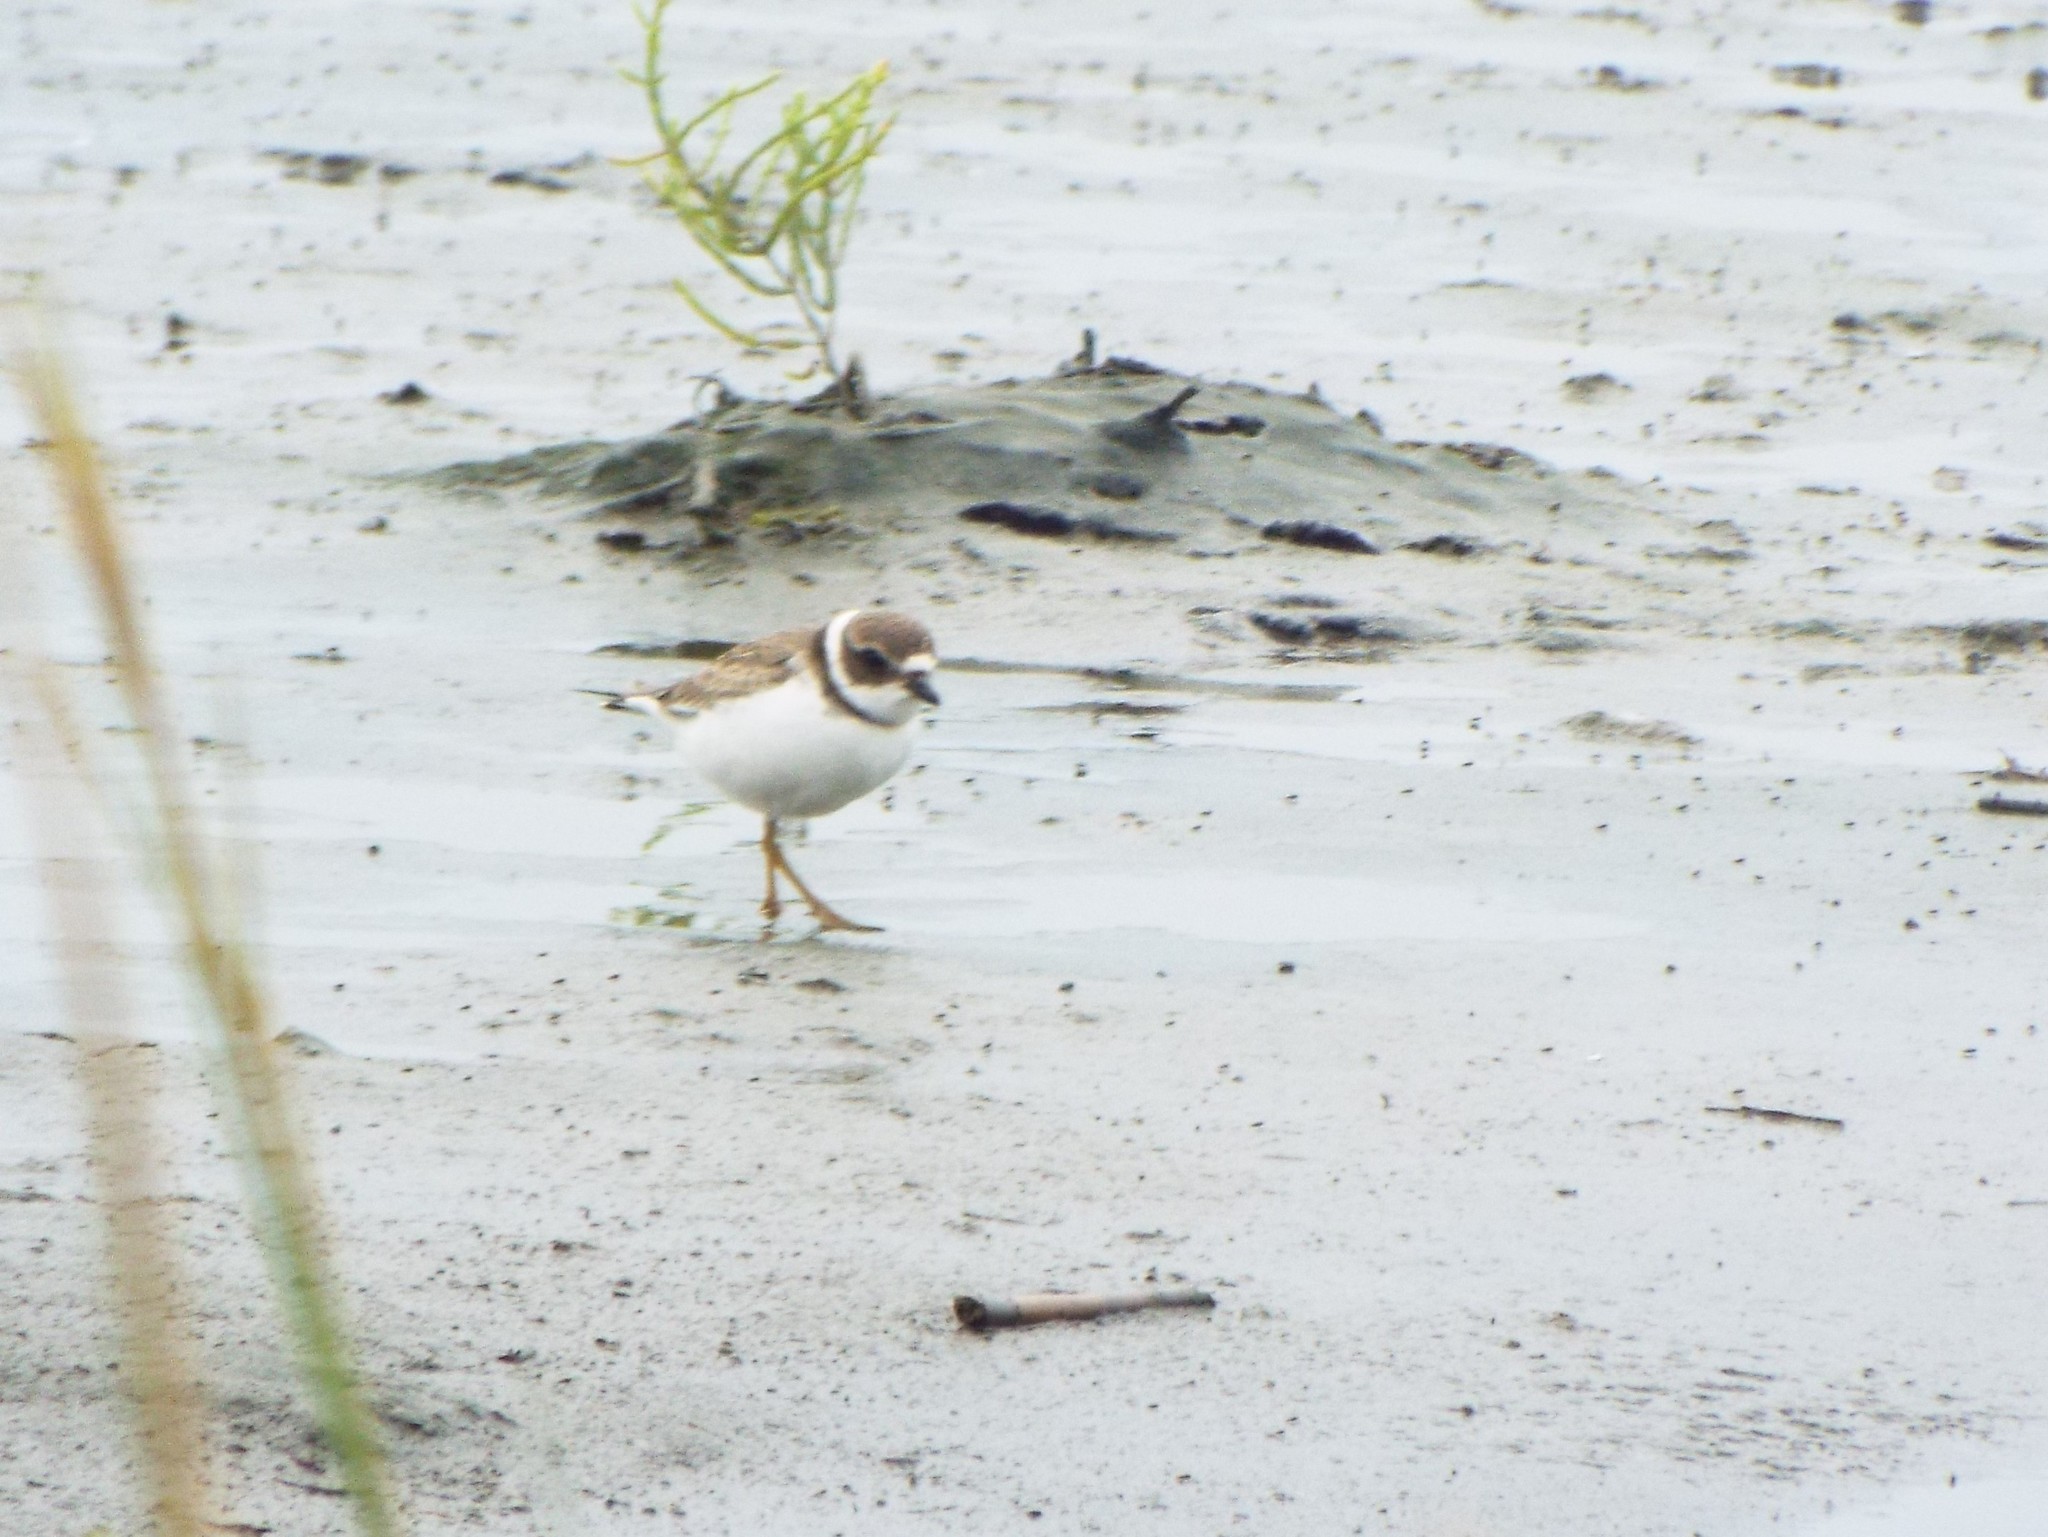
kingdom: Animalia
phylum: Chordata
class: Aves
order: Charadriiformes
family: Charadriidae
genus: Charadrius
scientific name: Charadrius semipalmatus
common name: Semipalmated plover
